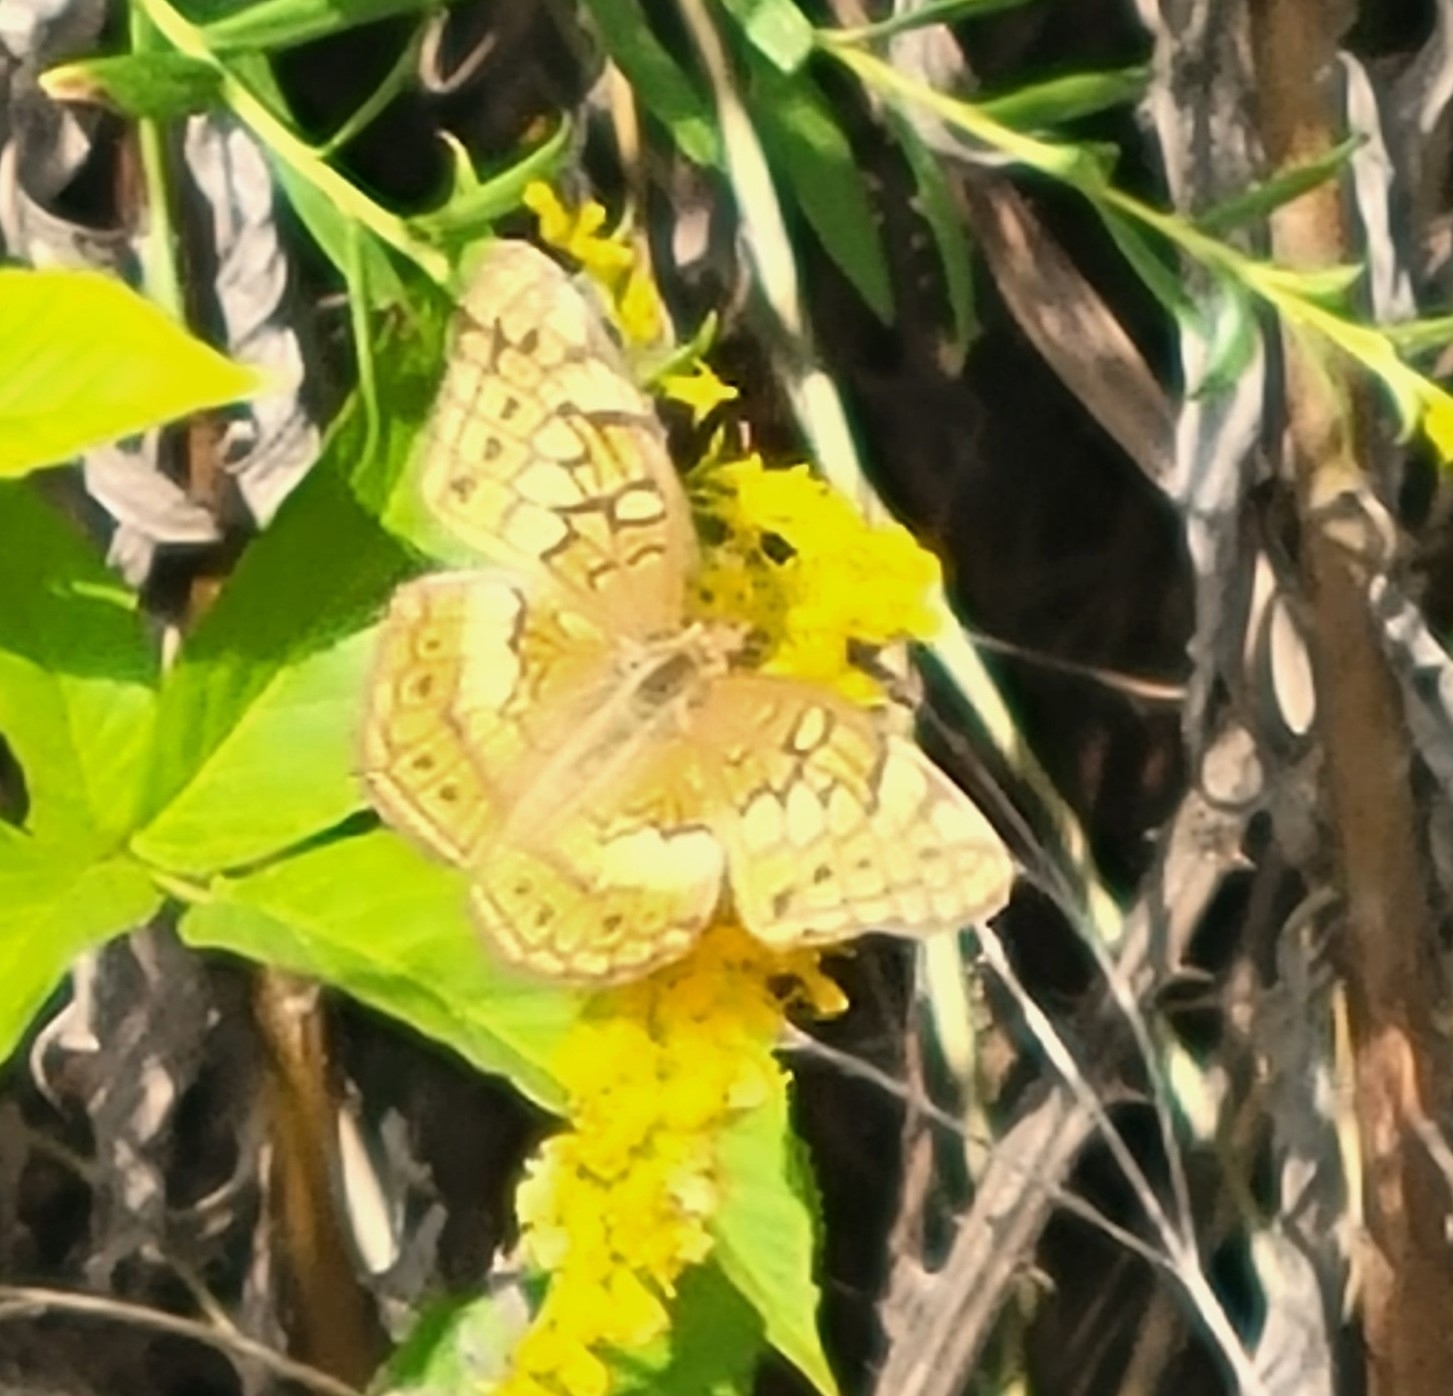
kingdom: Animalia
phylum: Arthropoda
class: Insecta
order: Lepidoptera
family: Nymphalidae
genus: Euptoieta
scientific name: Euptoieta claudia
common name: Variegated fritillary
